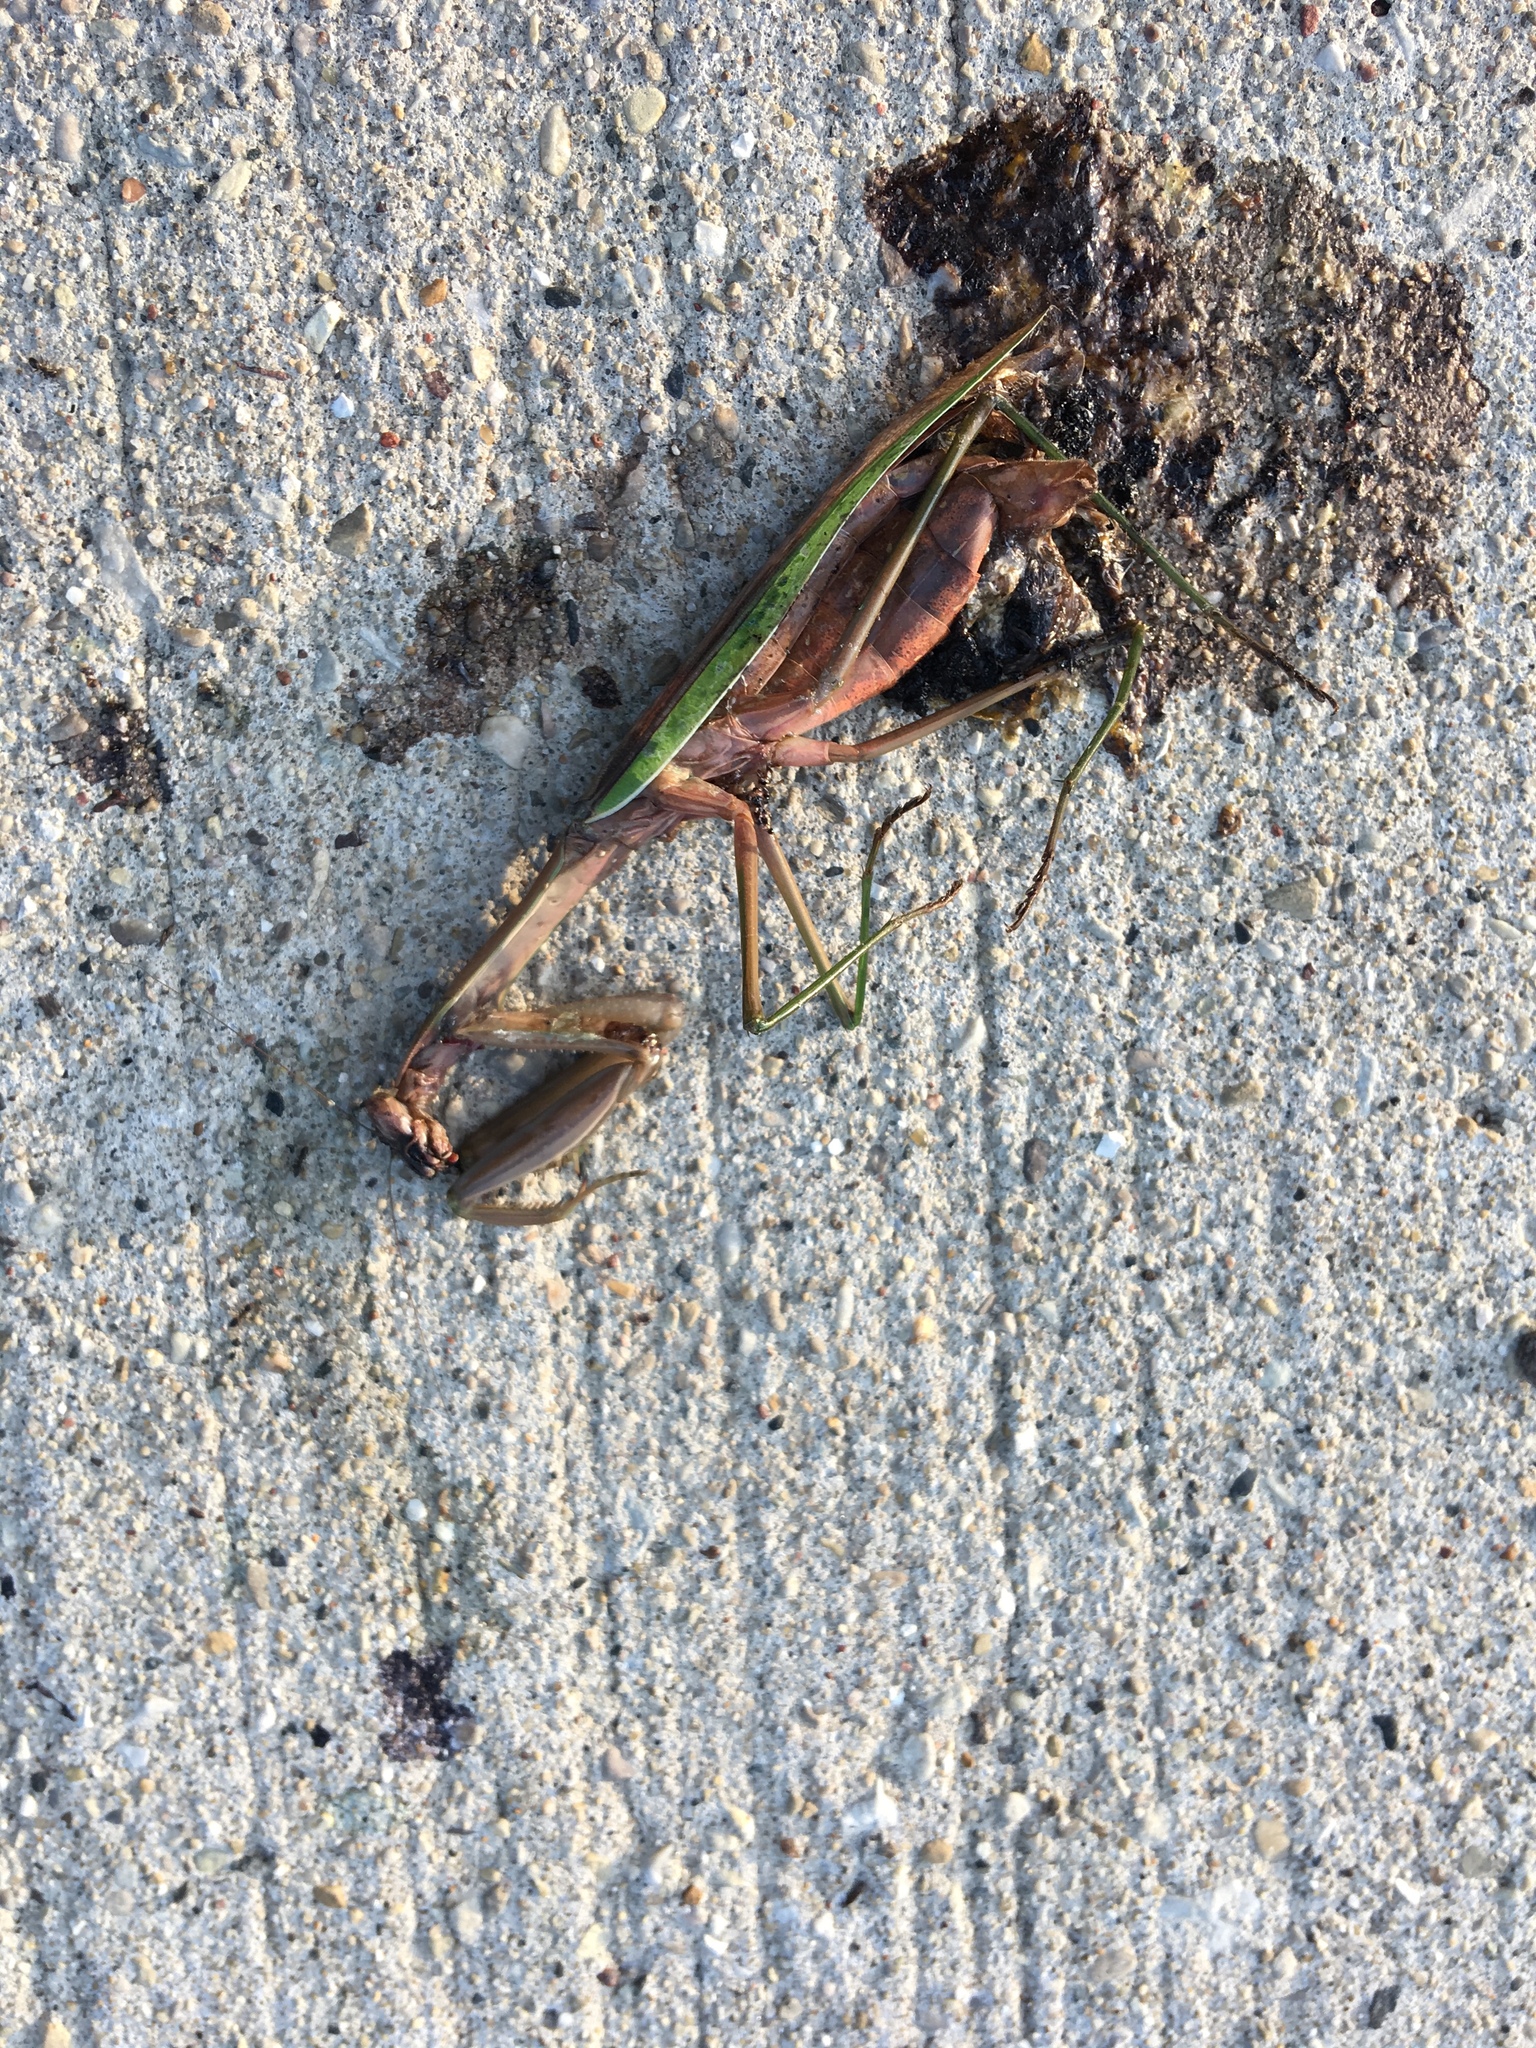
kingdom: Animalia
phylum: Arthropoda
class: Insecta
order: Mantodea
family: Mantidae
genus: Tenodera
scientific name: Tenodera sinensis
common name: Chinese mantis
